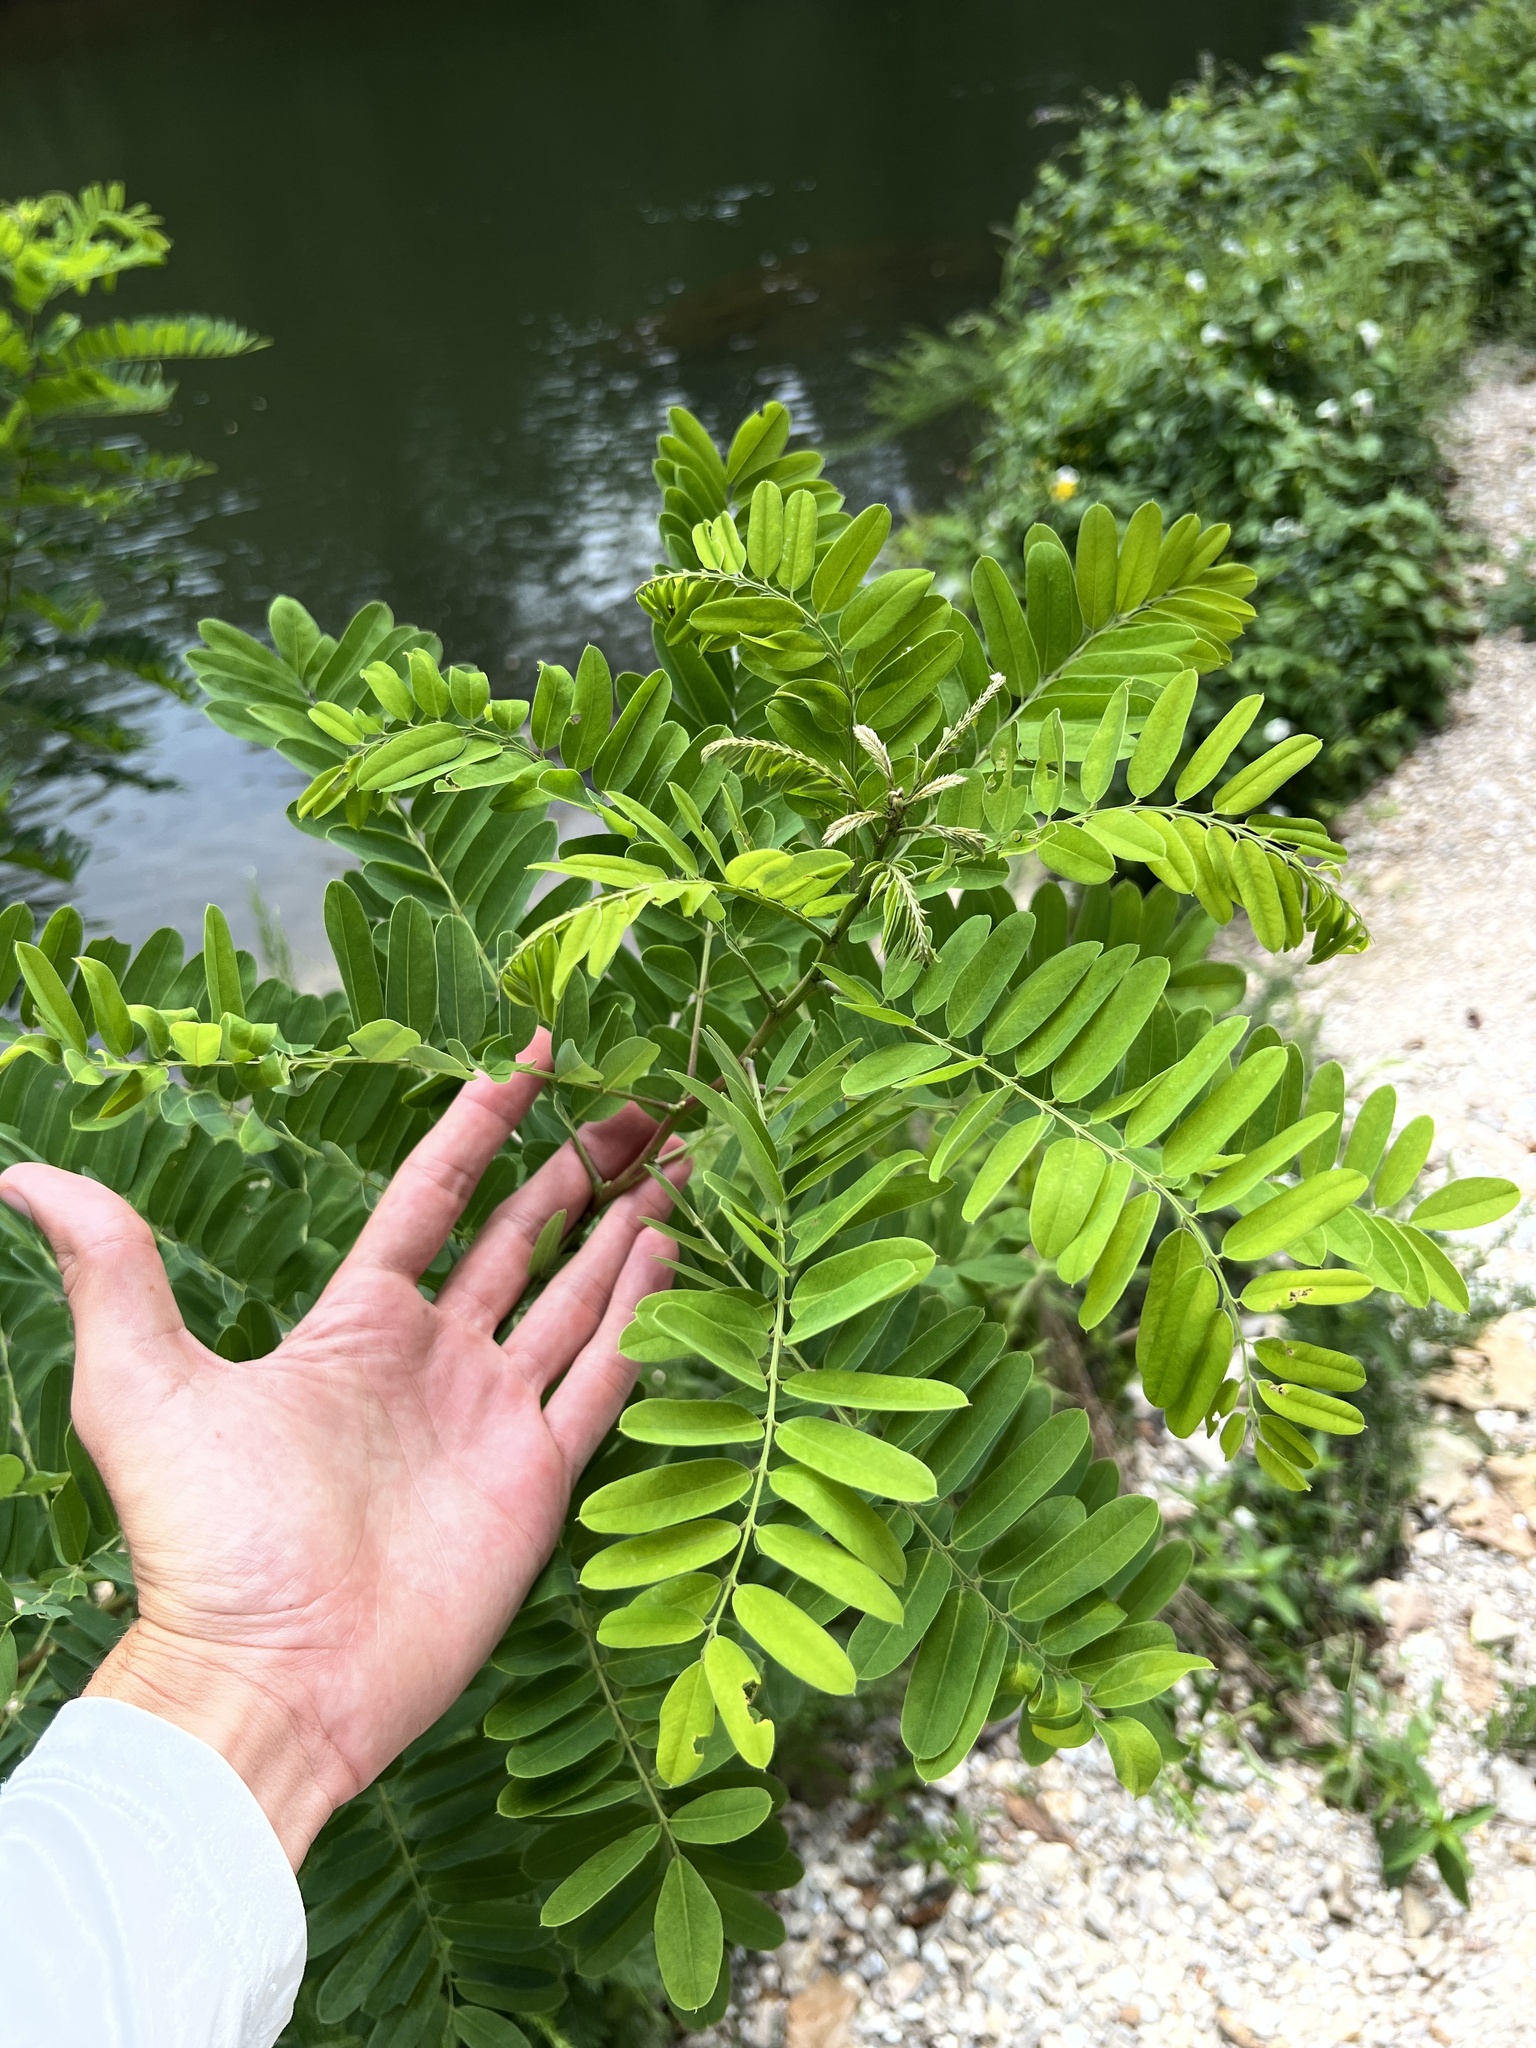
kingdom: Plantae
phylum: Tracheophyta
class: Magnoliopsida
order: Fabales
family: Fabaceae
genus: Amorpha
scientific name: Amorpha fruticosa
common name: False indigo
